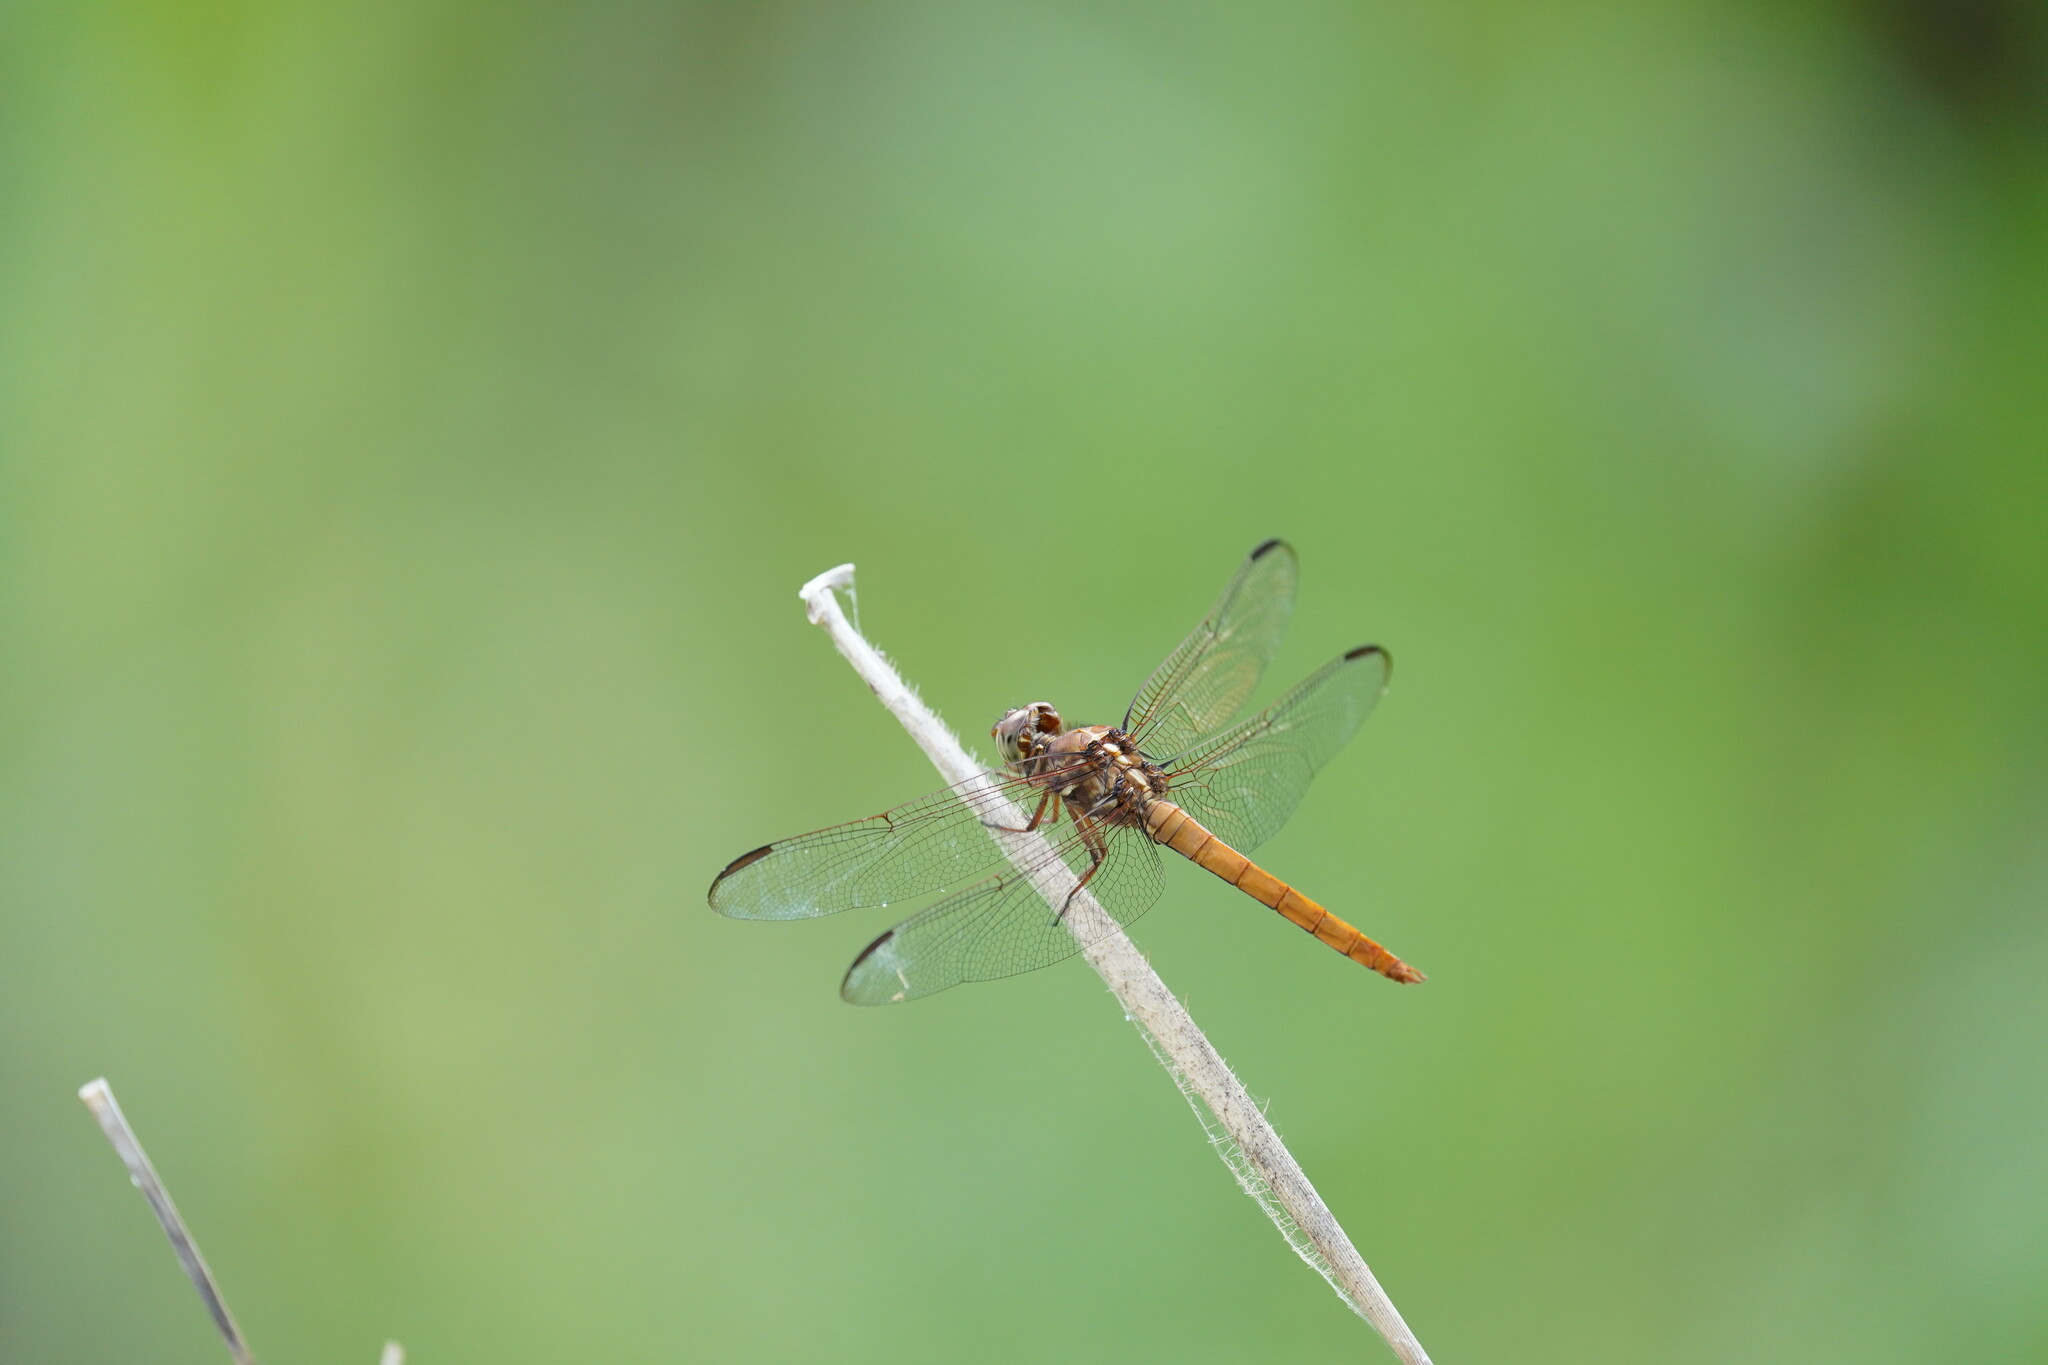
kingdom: Animalia
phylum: Arthropoda
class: Insecta
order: Odonata
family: Libellulidae
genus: Orthemis
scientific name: Orthemis ferruginea
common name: Roseate skimmer
